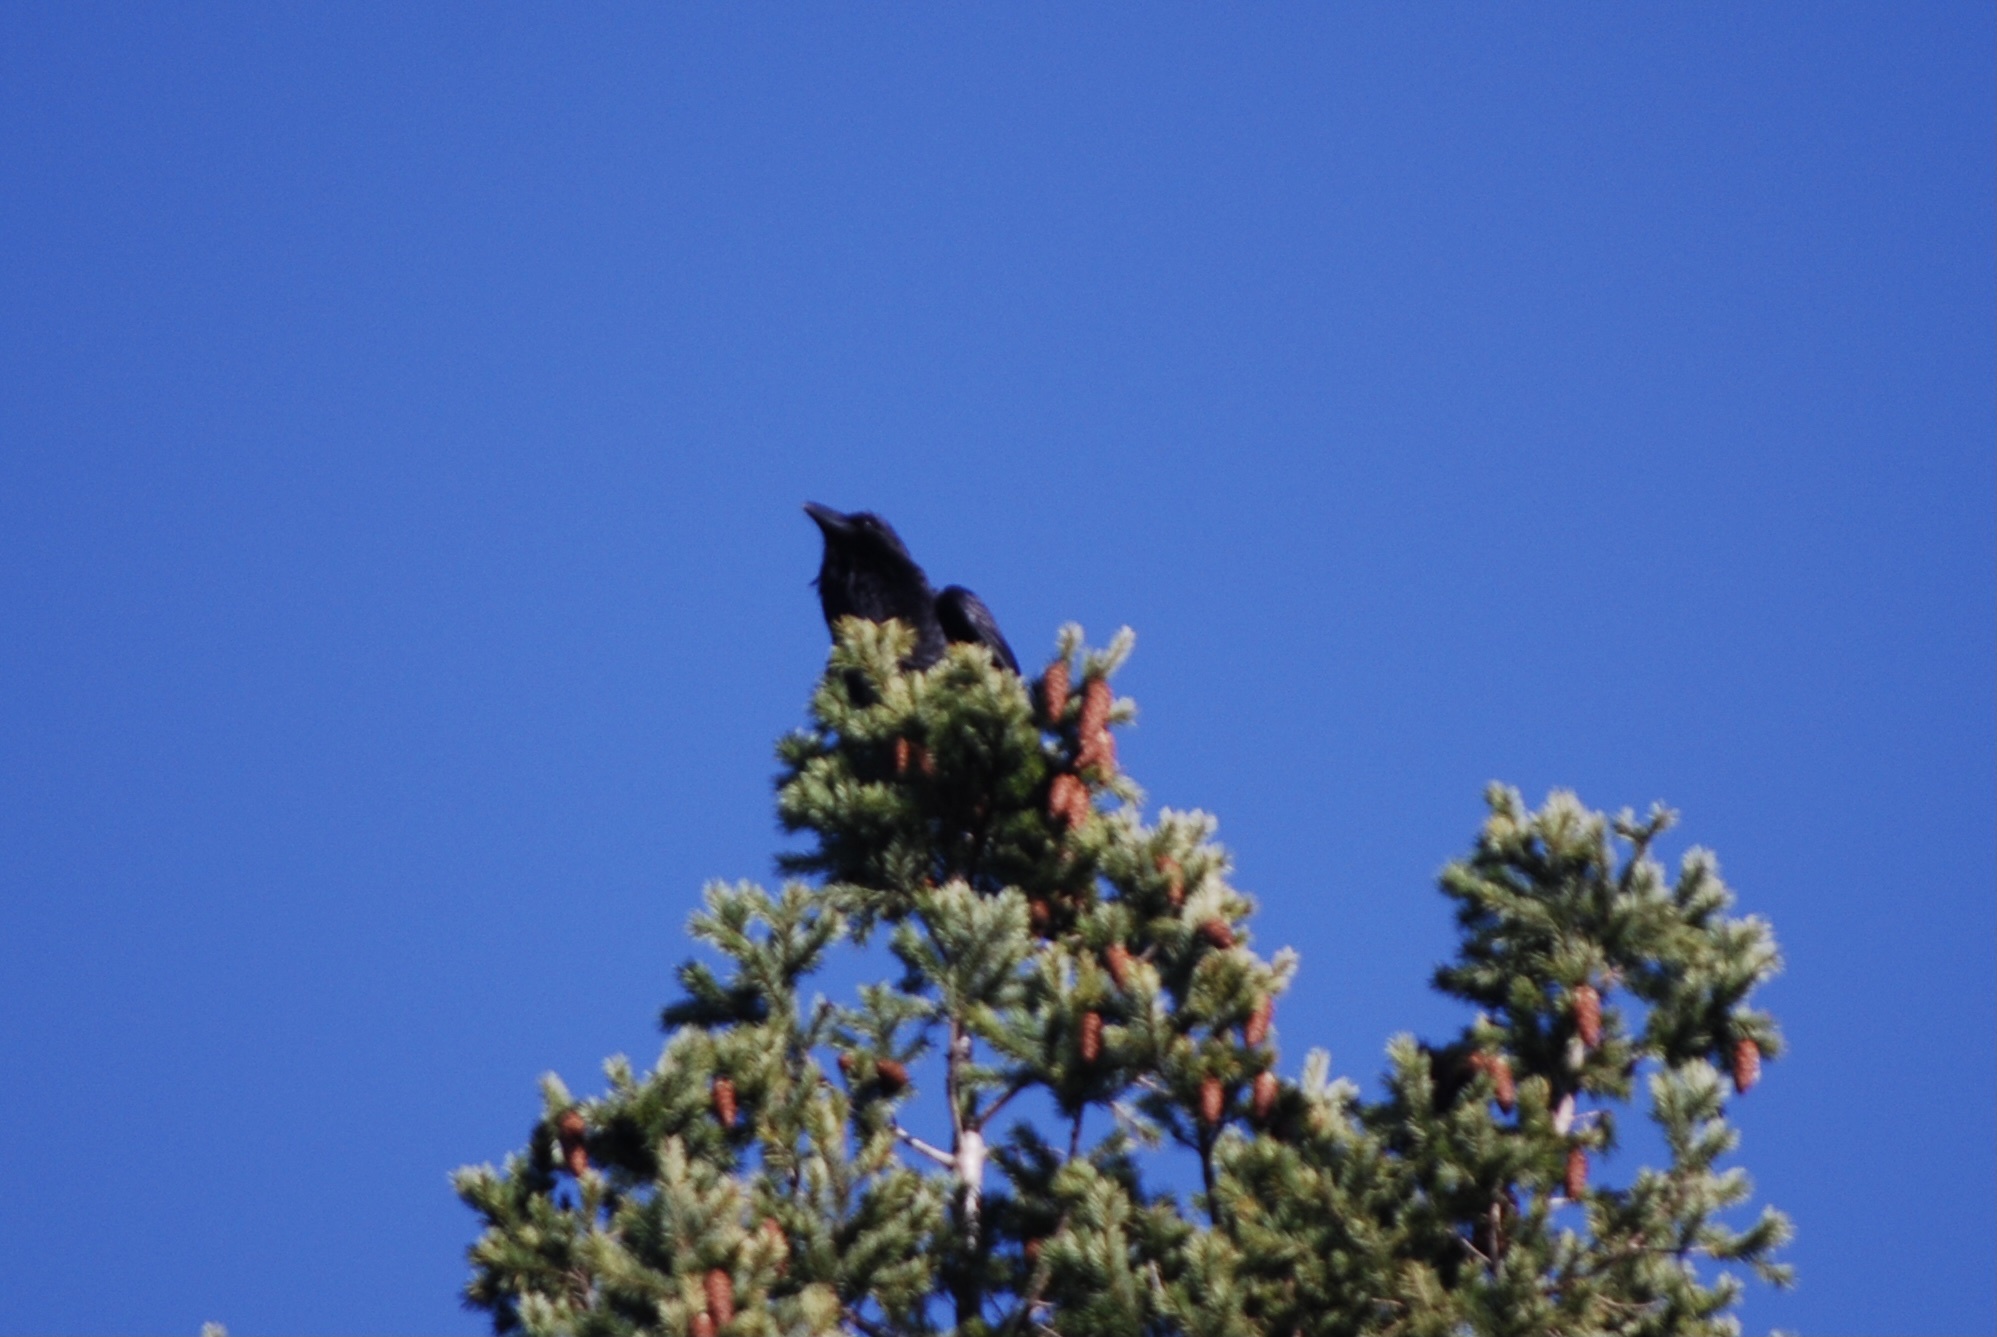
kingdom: Animalia
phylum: Chordata
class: Aves
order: Passeriformes
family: Corvidae
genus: Corvus
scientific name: Corvus corax
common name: Common raven
